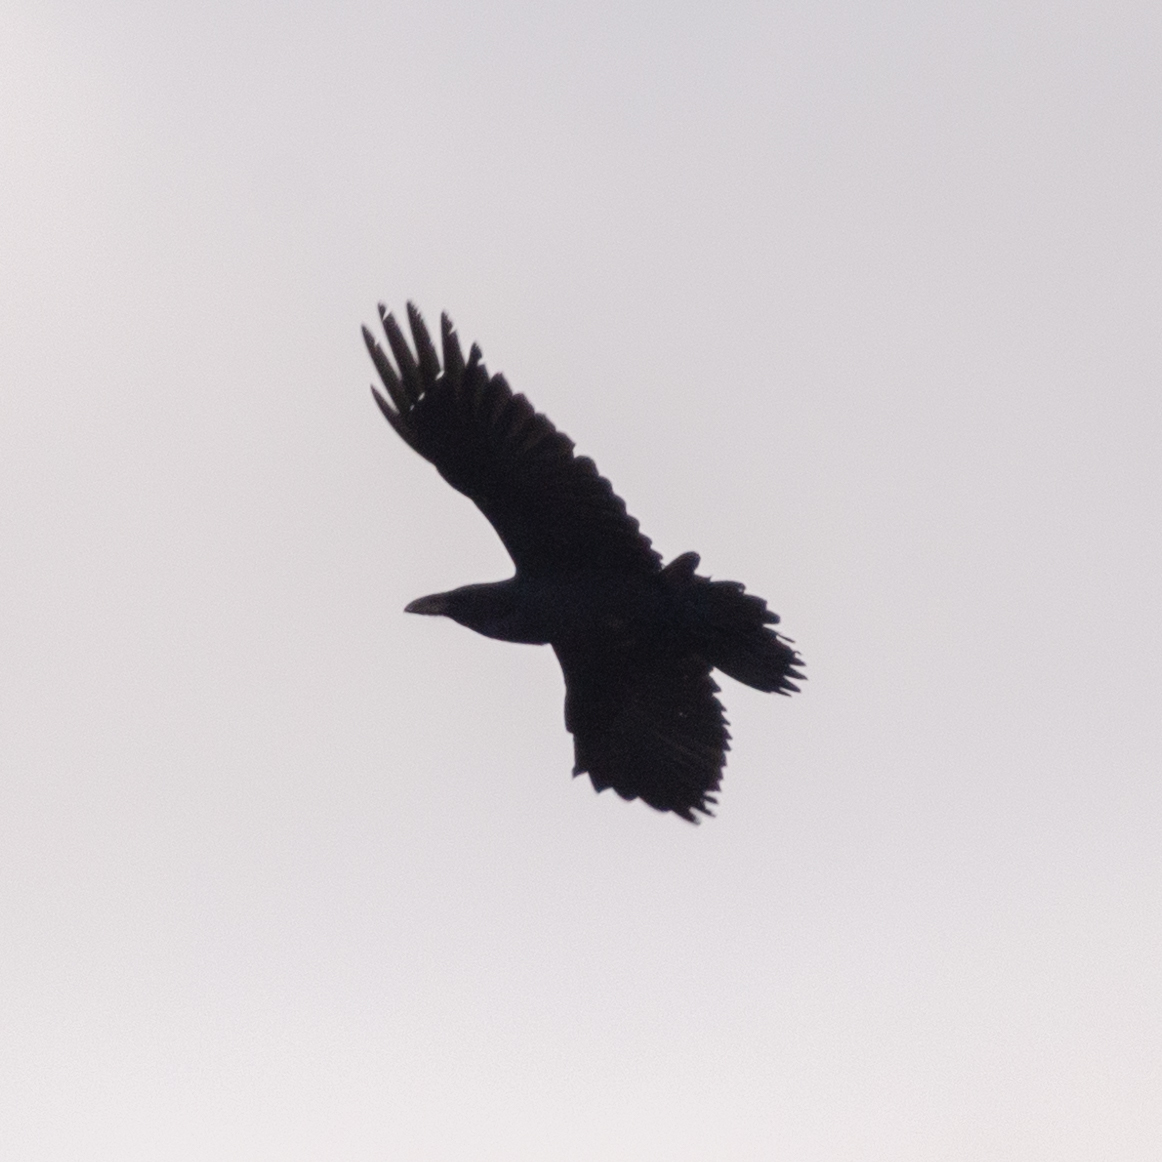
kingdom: Animalia
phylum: Chordata
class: Aves
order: Passeriformes
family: Corvidae
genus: Corvus
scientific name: Corvus corax
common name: Common raven
